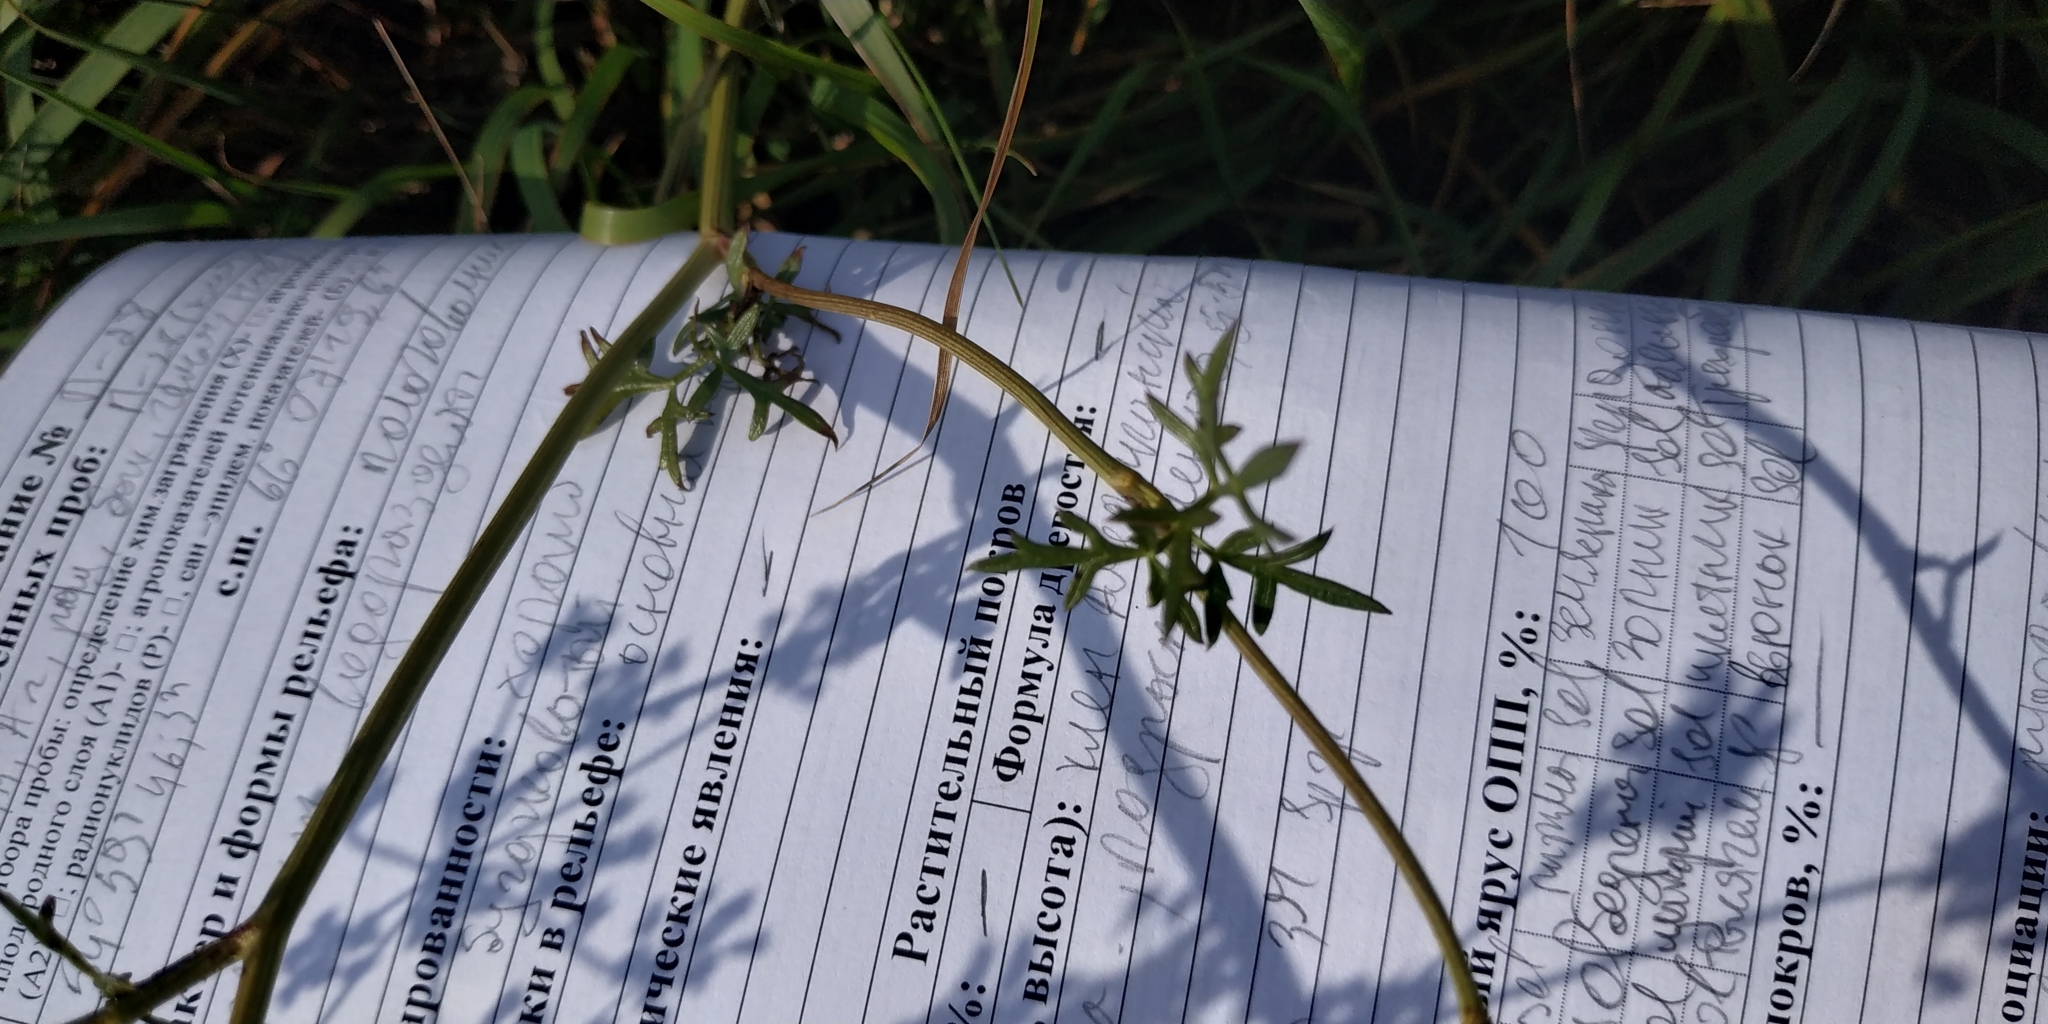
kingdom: Plantae
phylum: Tracheophyta
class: Magnoliopsida
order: Apiales
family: Apiaceae
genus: Pastinaca
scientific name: Pastinaca sativa
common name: Wild parsnip
